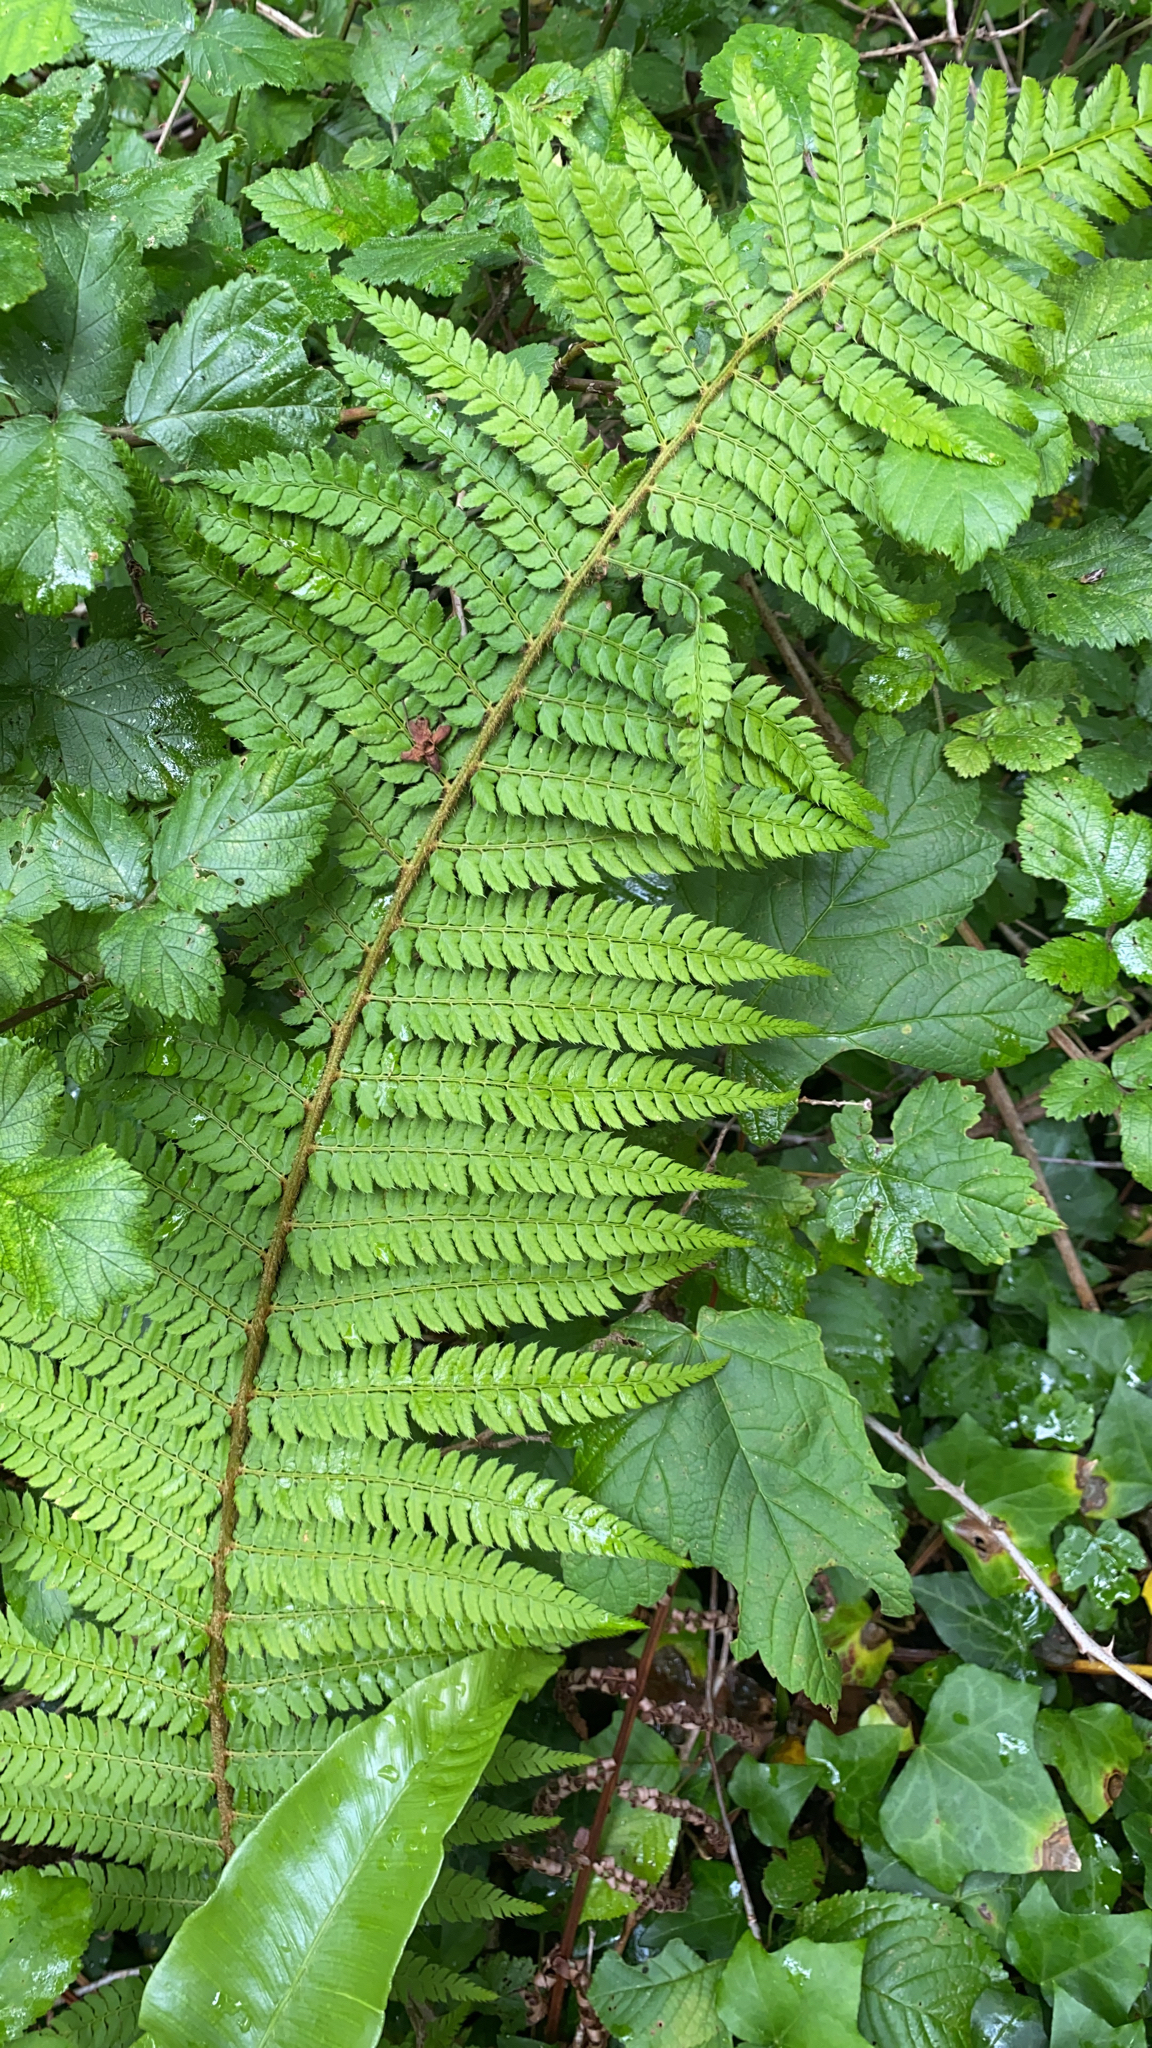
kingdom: Plantae
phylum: Tracheophyta
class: Polypodiopsida
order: Polypodiales
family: Dryopteridaceae
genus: Polystichum
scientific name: Polystichum setiferum
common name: Soft shield-fern
